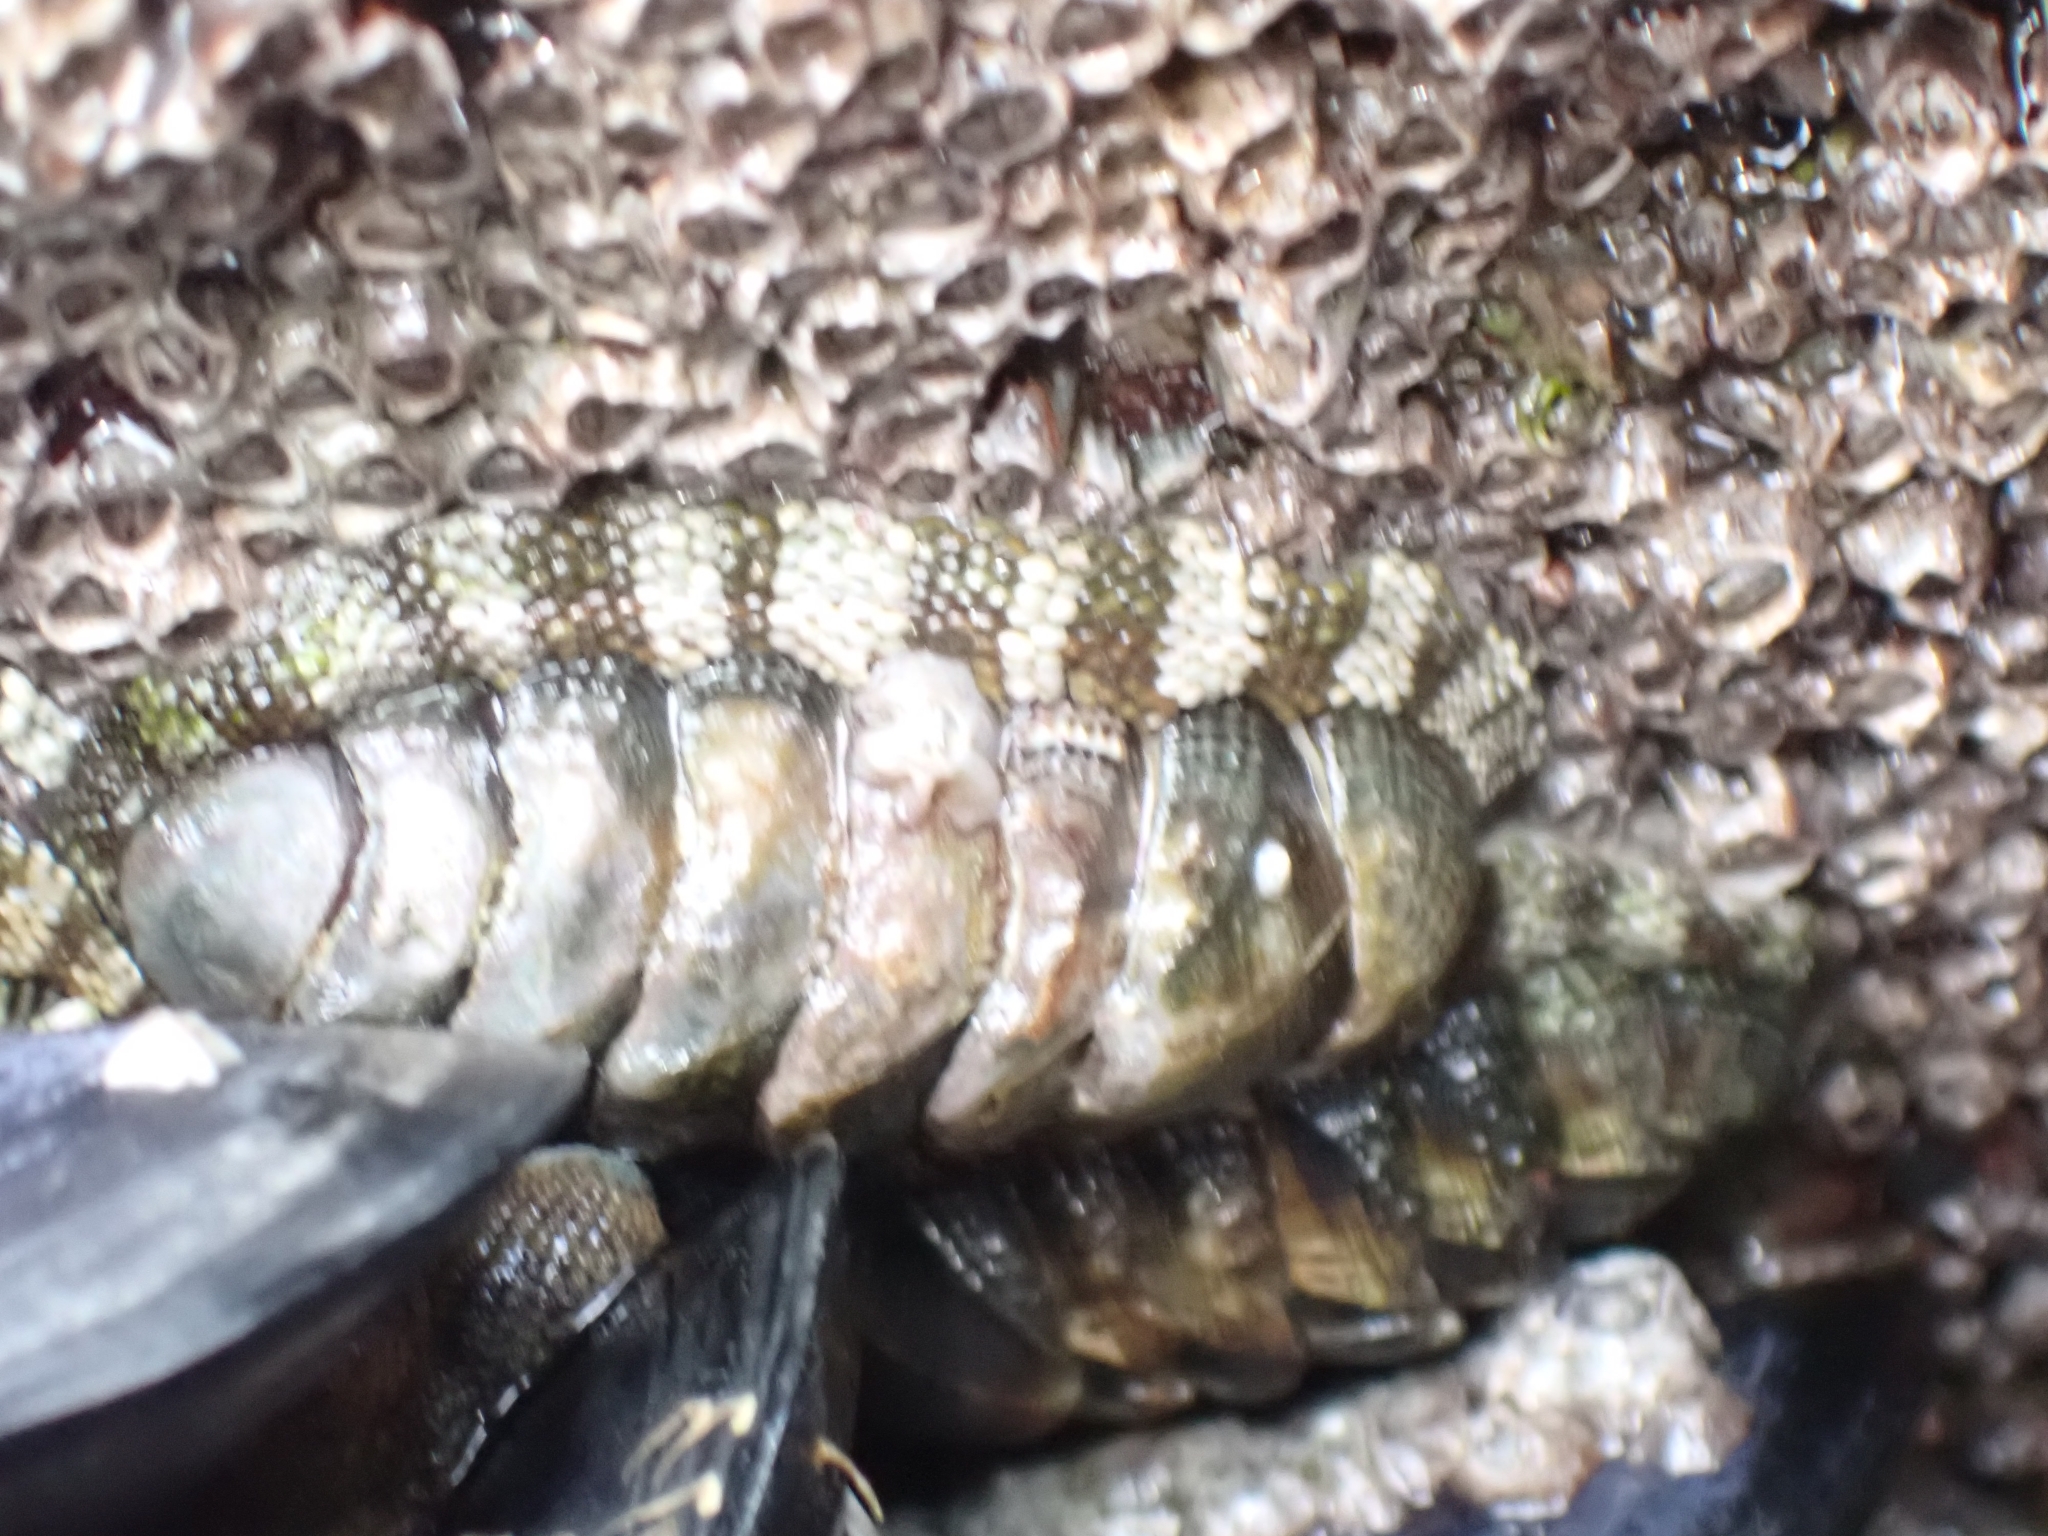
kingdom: Animalia
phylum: Mollusca
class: Polyplacophora
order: Chitonida
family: Chitonidae
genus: Sypharochiton
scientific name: Sypharochiton pelliserpentis
